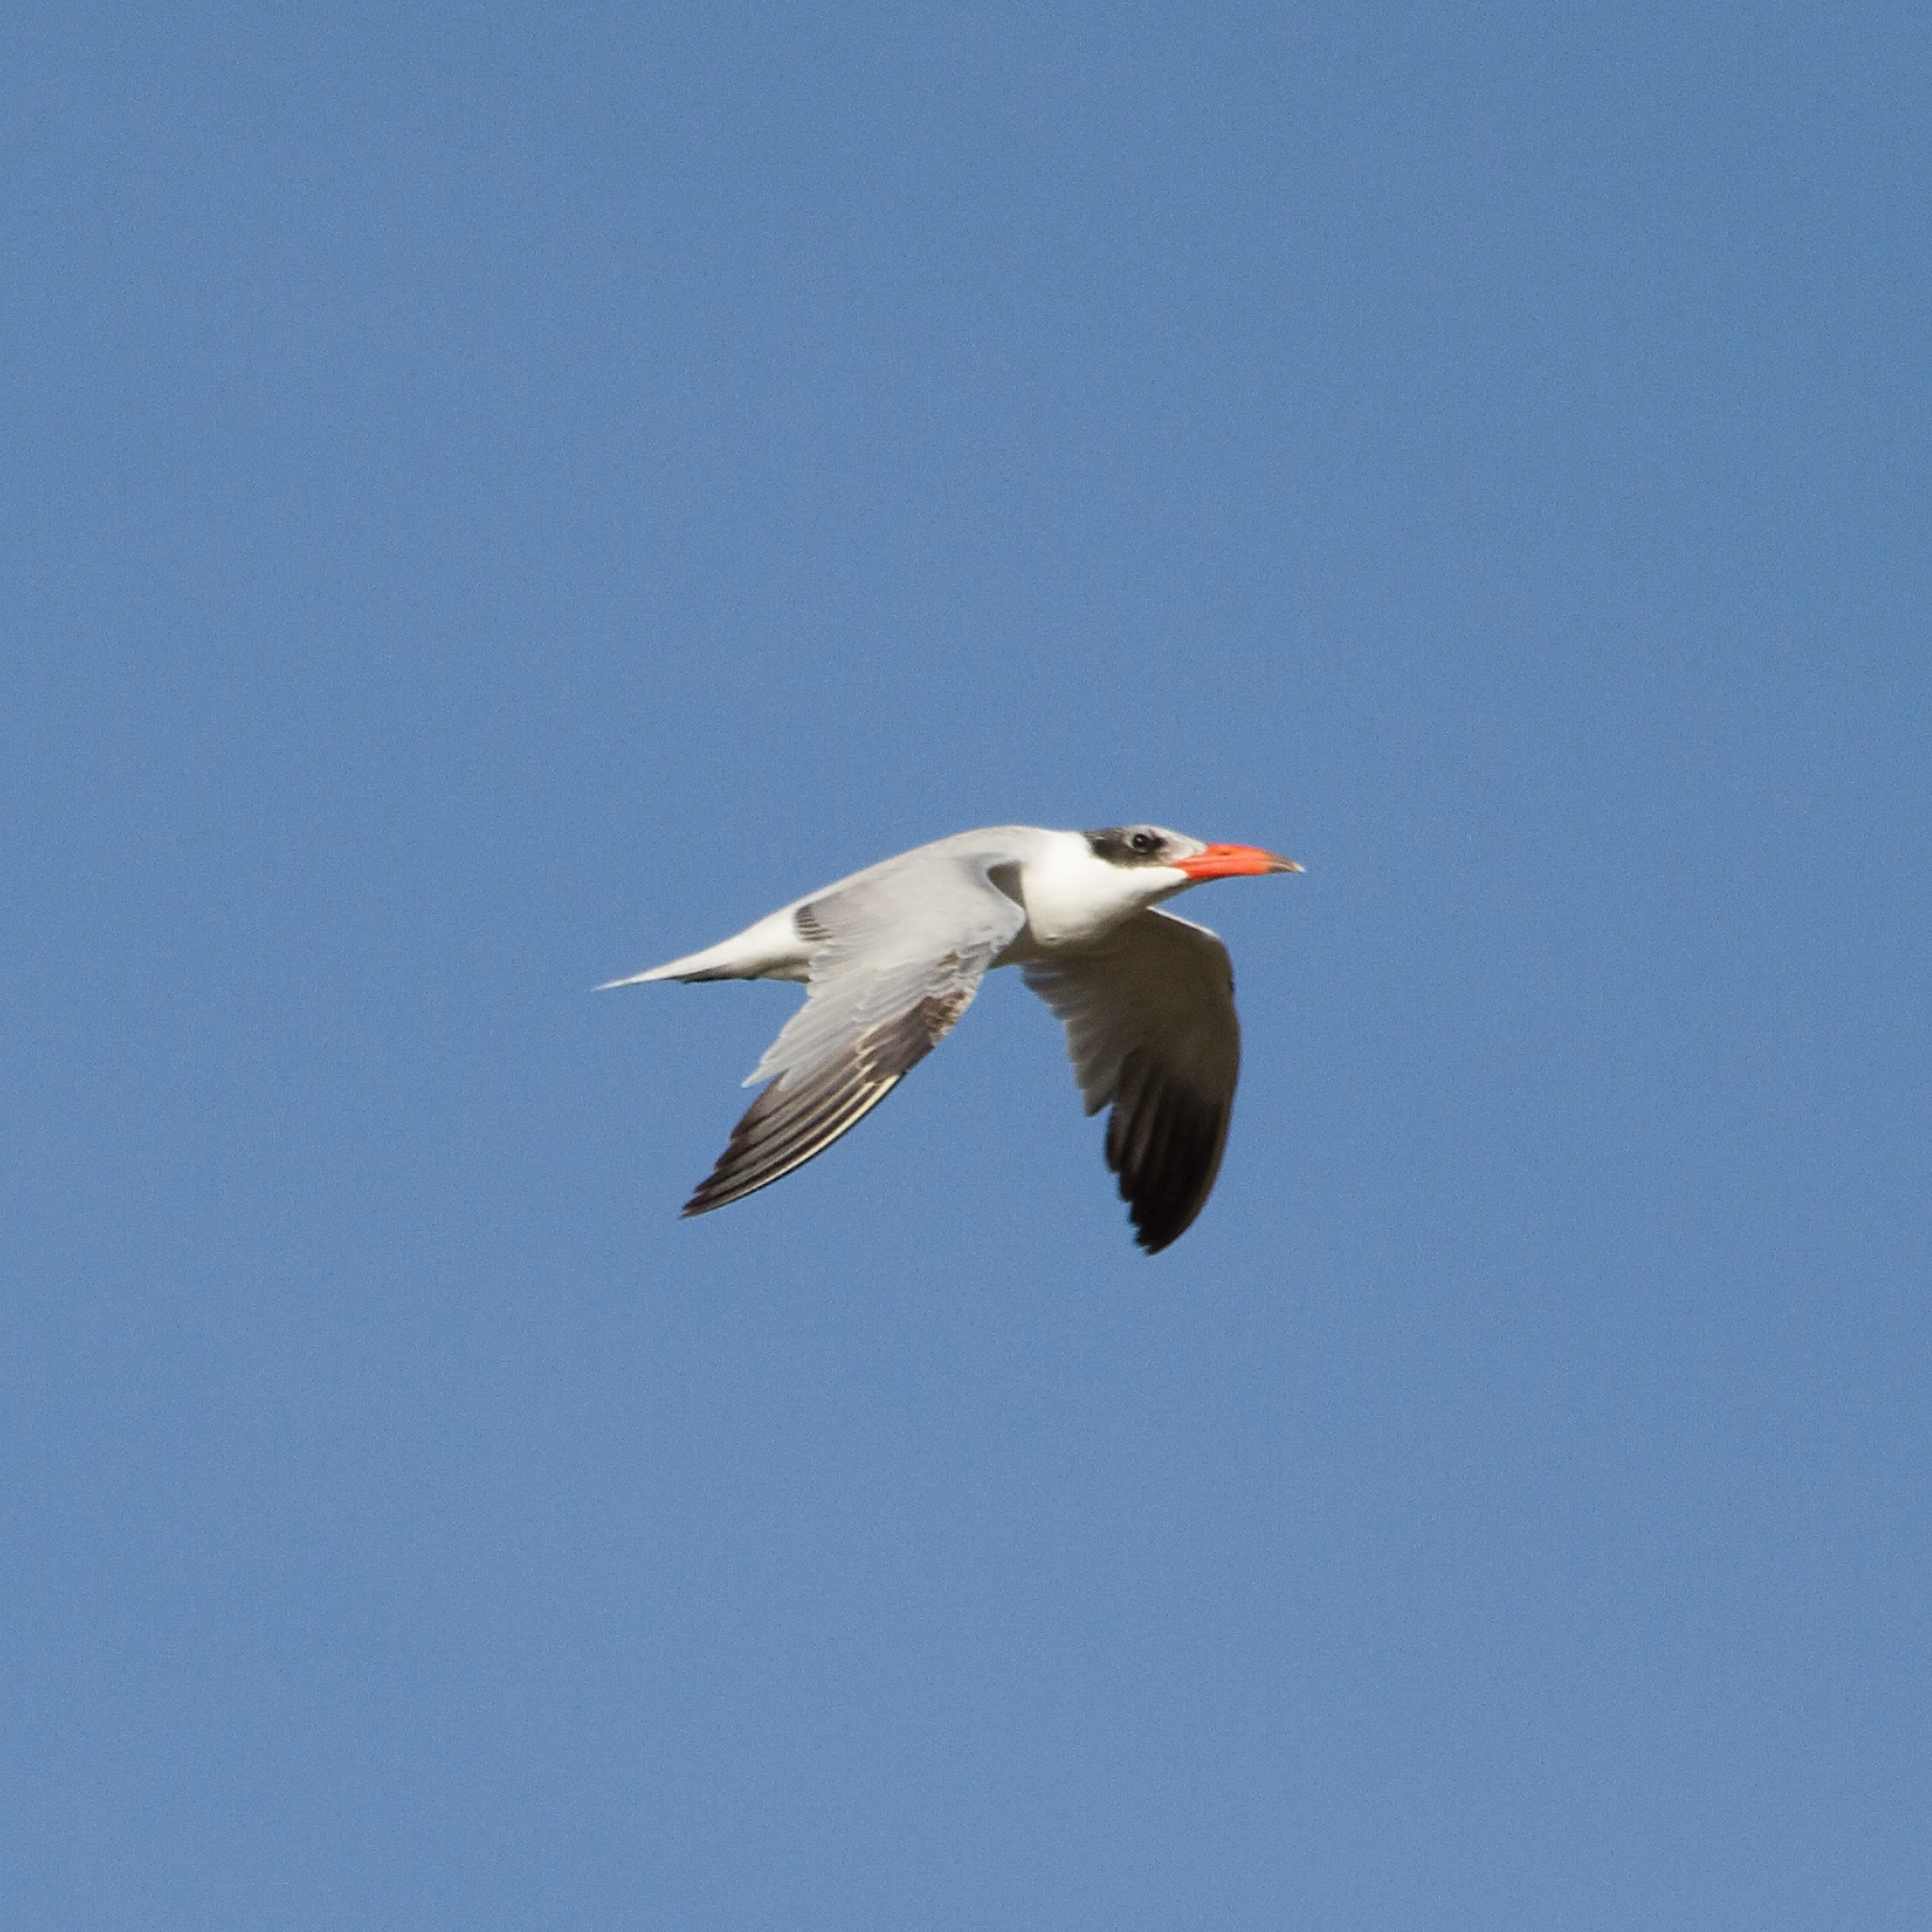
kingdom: Animalia
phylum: Chordata
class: Aves
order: Charadriiformes
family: Laridae
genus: Hydroprogne
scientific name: Hydroprogne caspia
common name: Caspian tern
